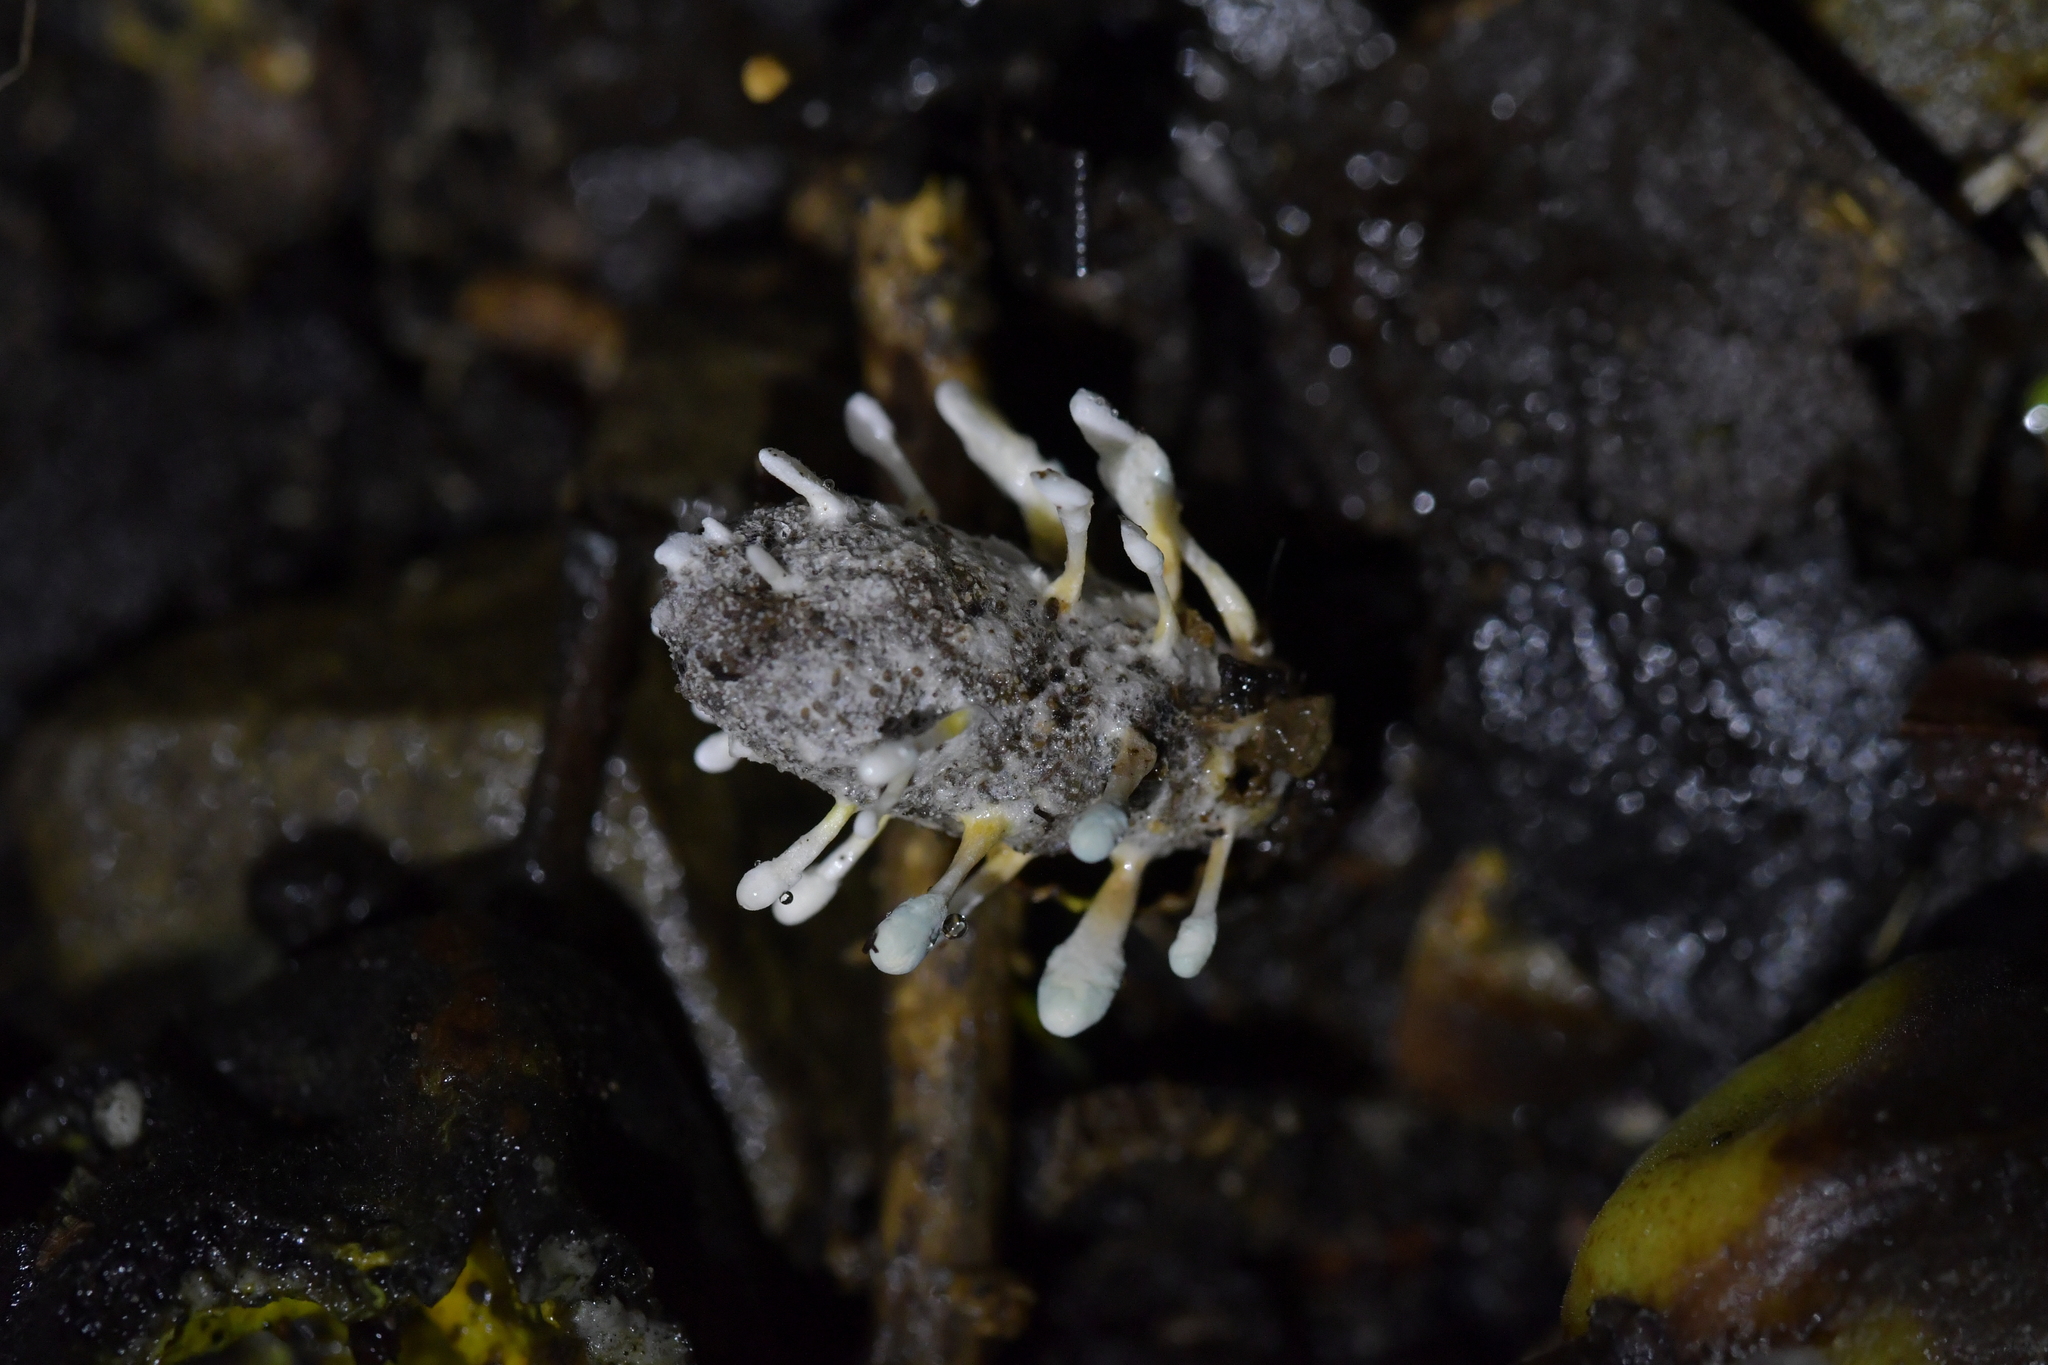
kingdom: Fungi
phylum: Ascomycota
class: Eurotiomycetes
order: Eurotiales
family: Aspergillaceae
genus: Penicillium
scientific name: Penicillium vulpinum
